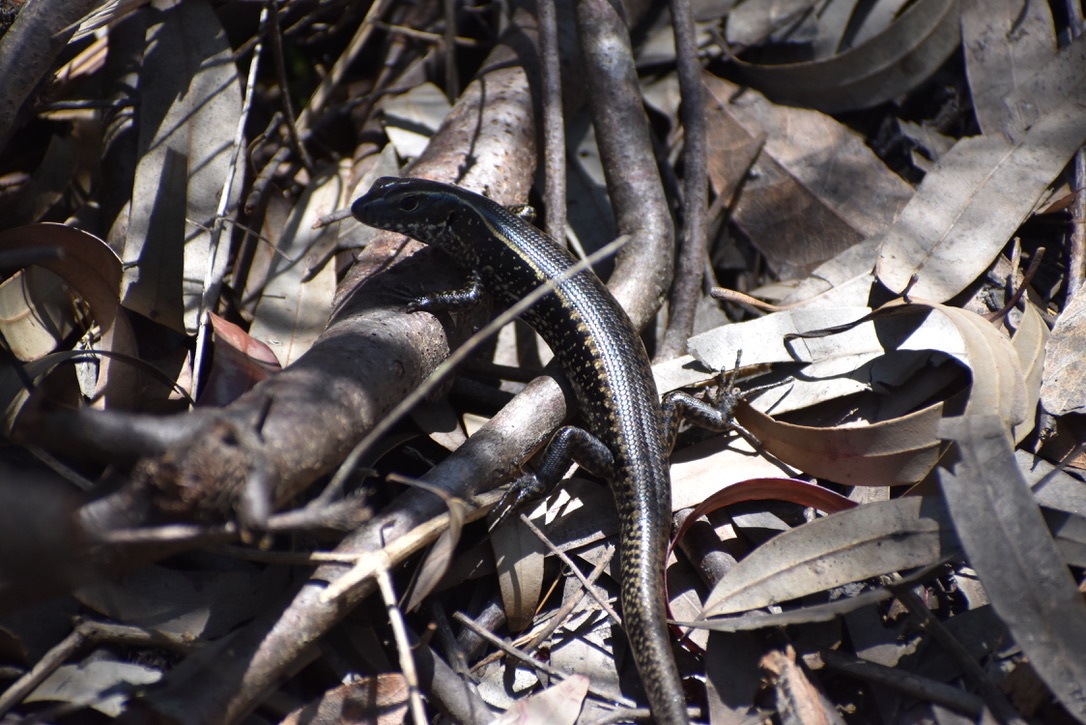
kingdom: Animalia
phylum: Chordata
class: Squamata
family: Scincidae
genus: Eulamprus
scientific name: Eulamprus quoyii
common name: Eastern water skink
